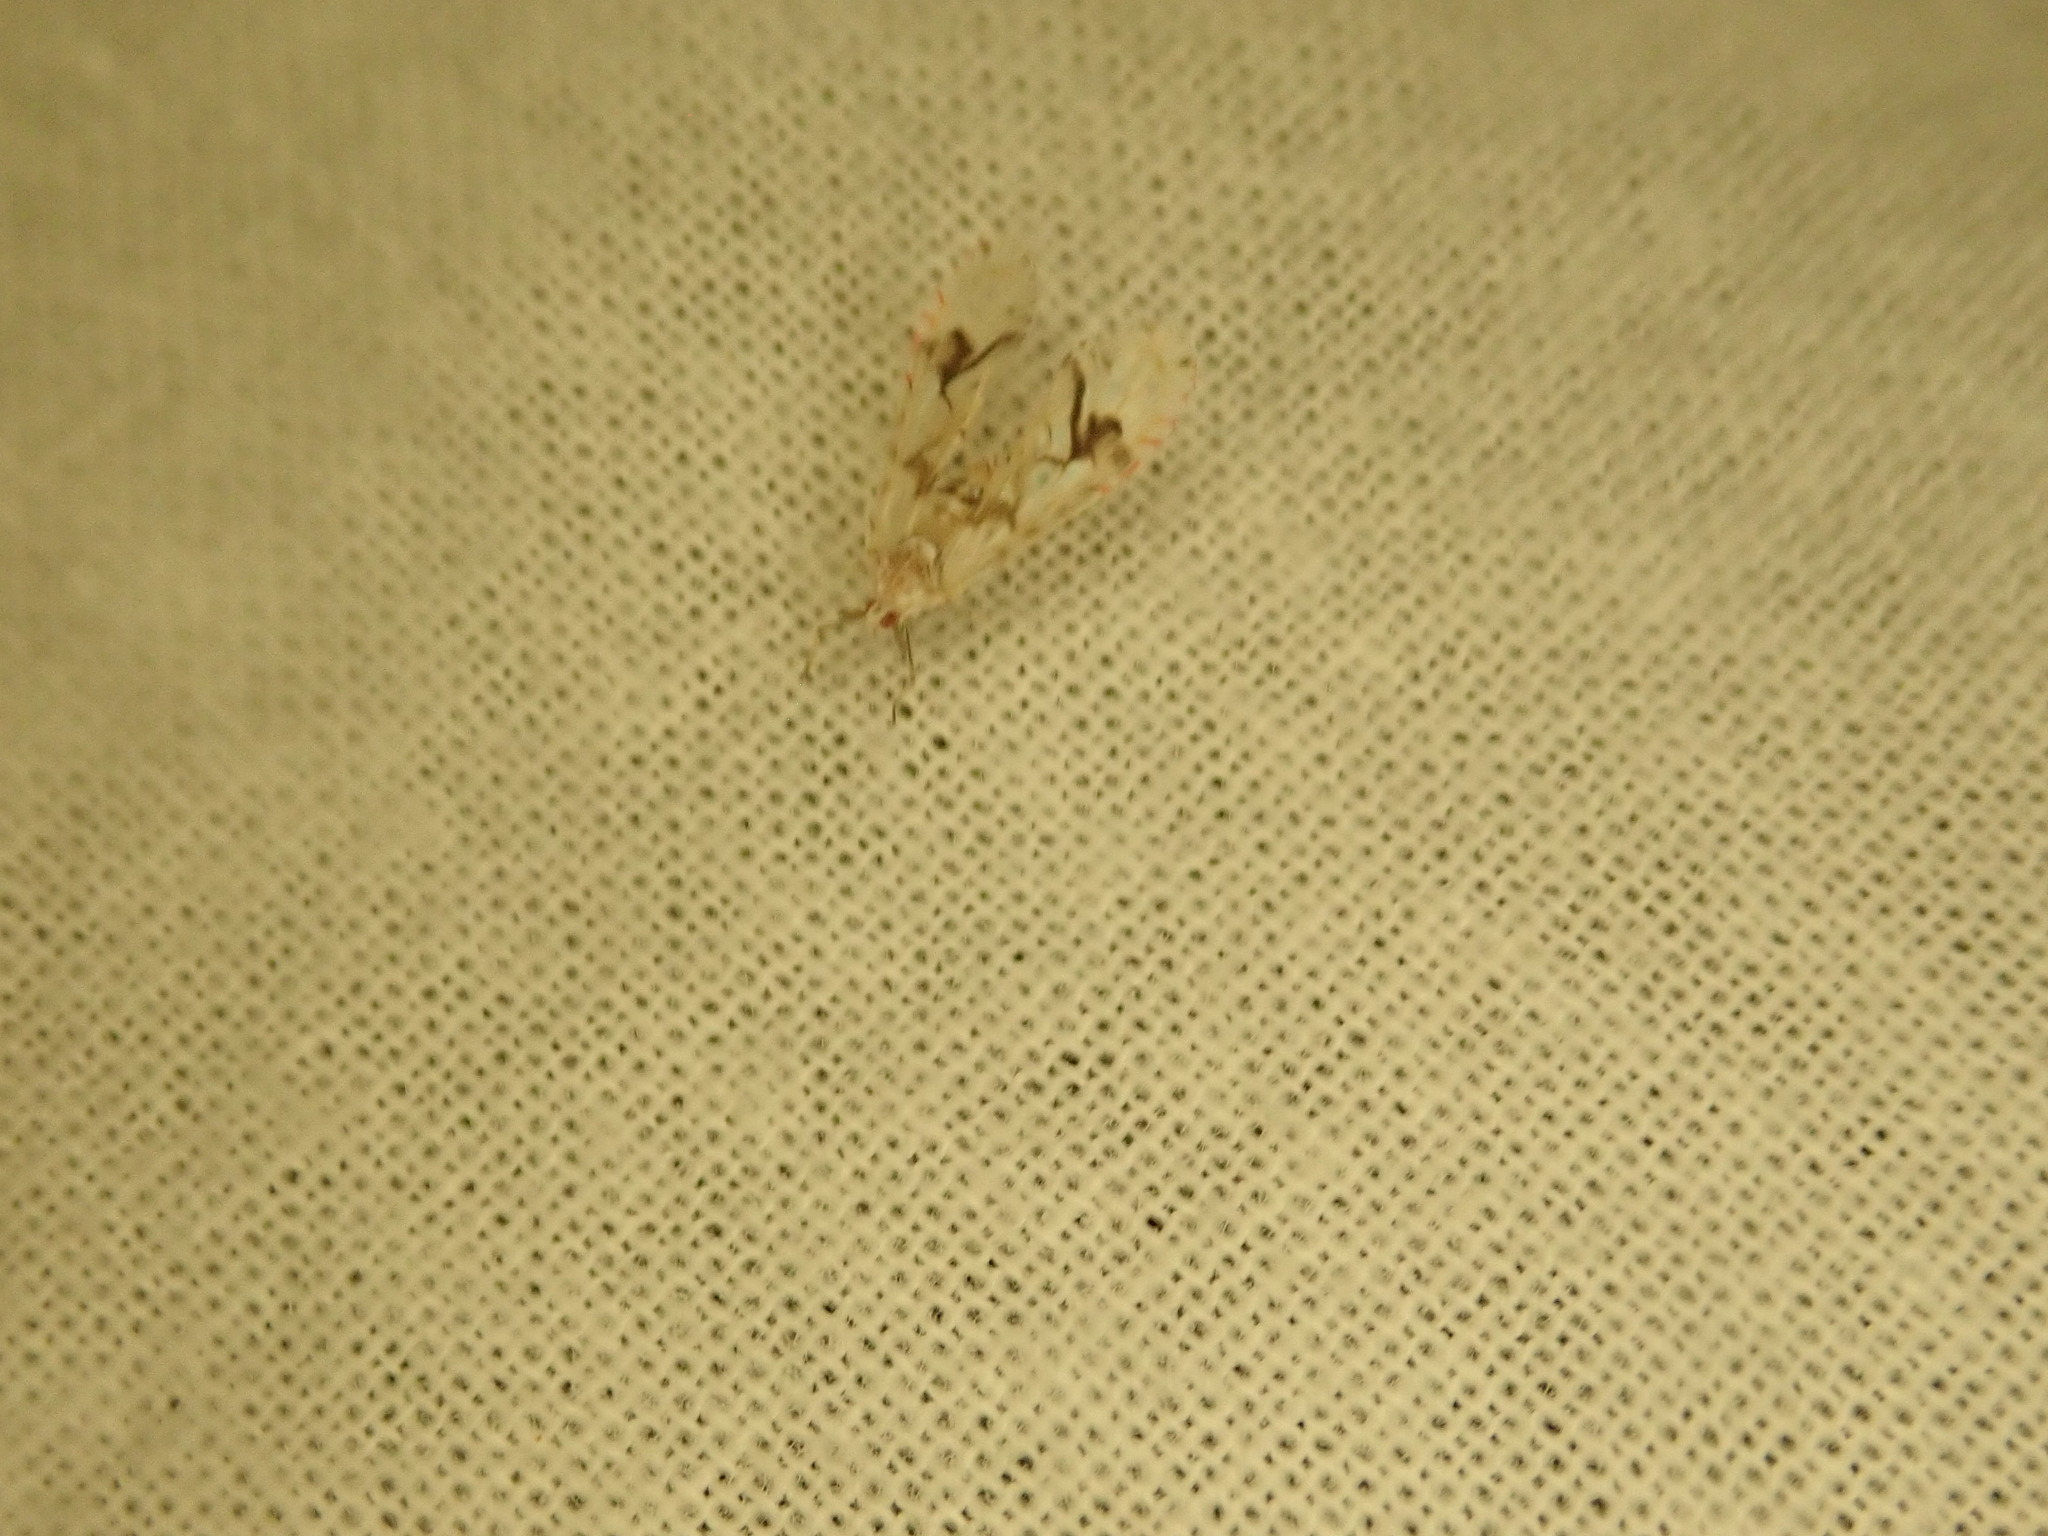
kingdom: Animalia
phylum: Arthropoda
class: Insecta
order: Hemiptera
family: Derbidae
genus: Anotia
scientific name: Anotia robertsonii
